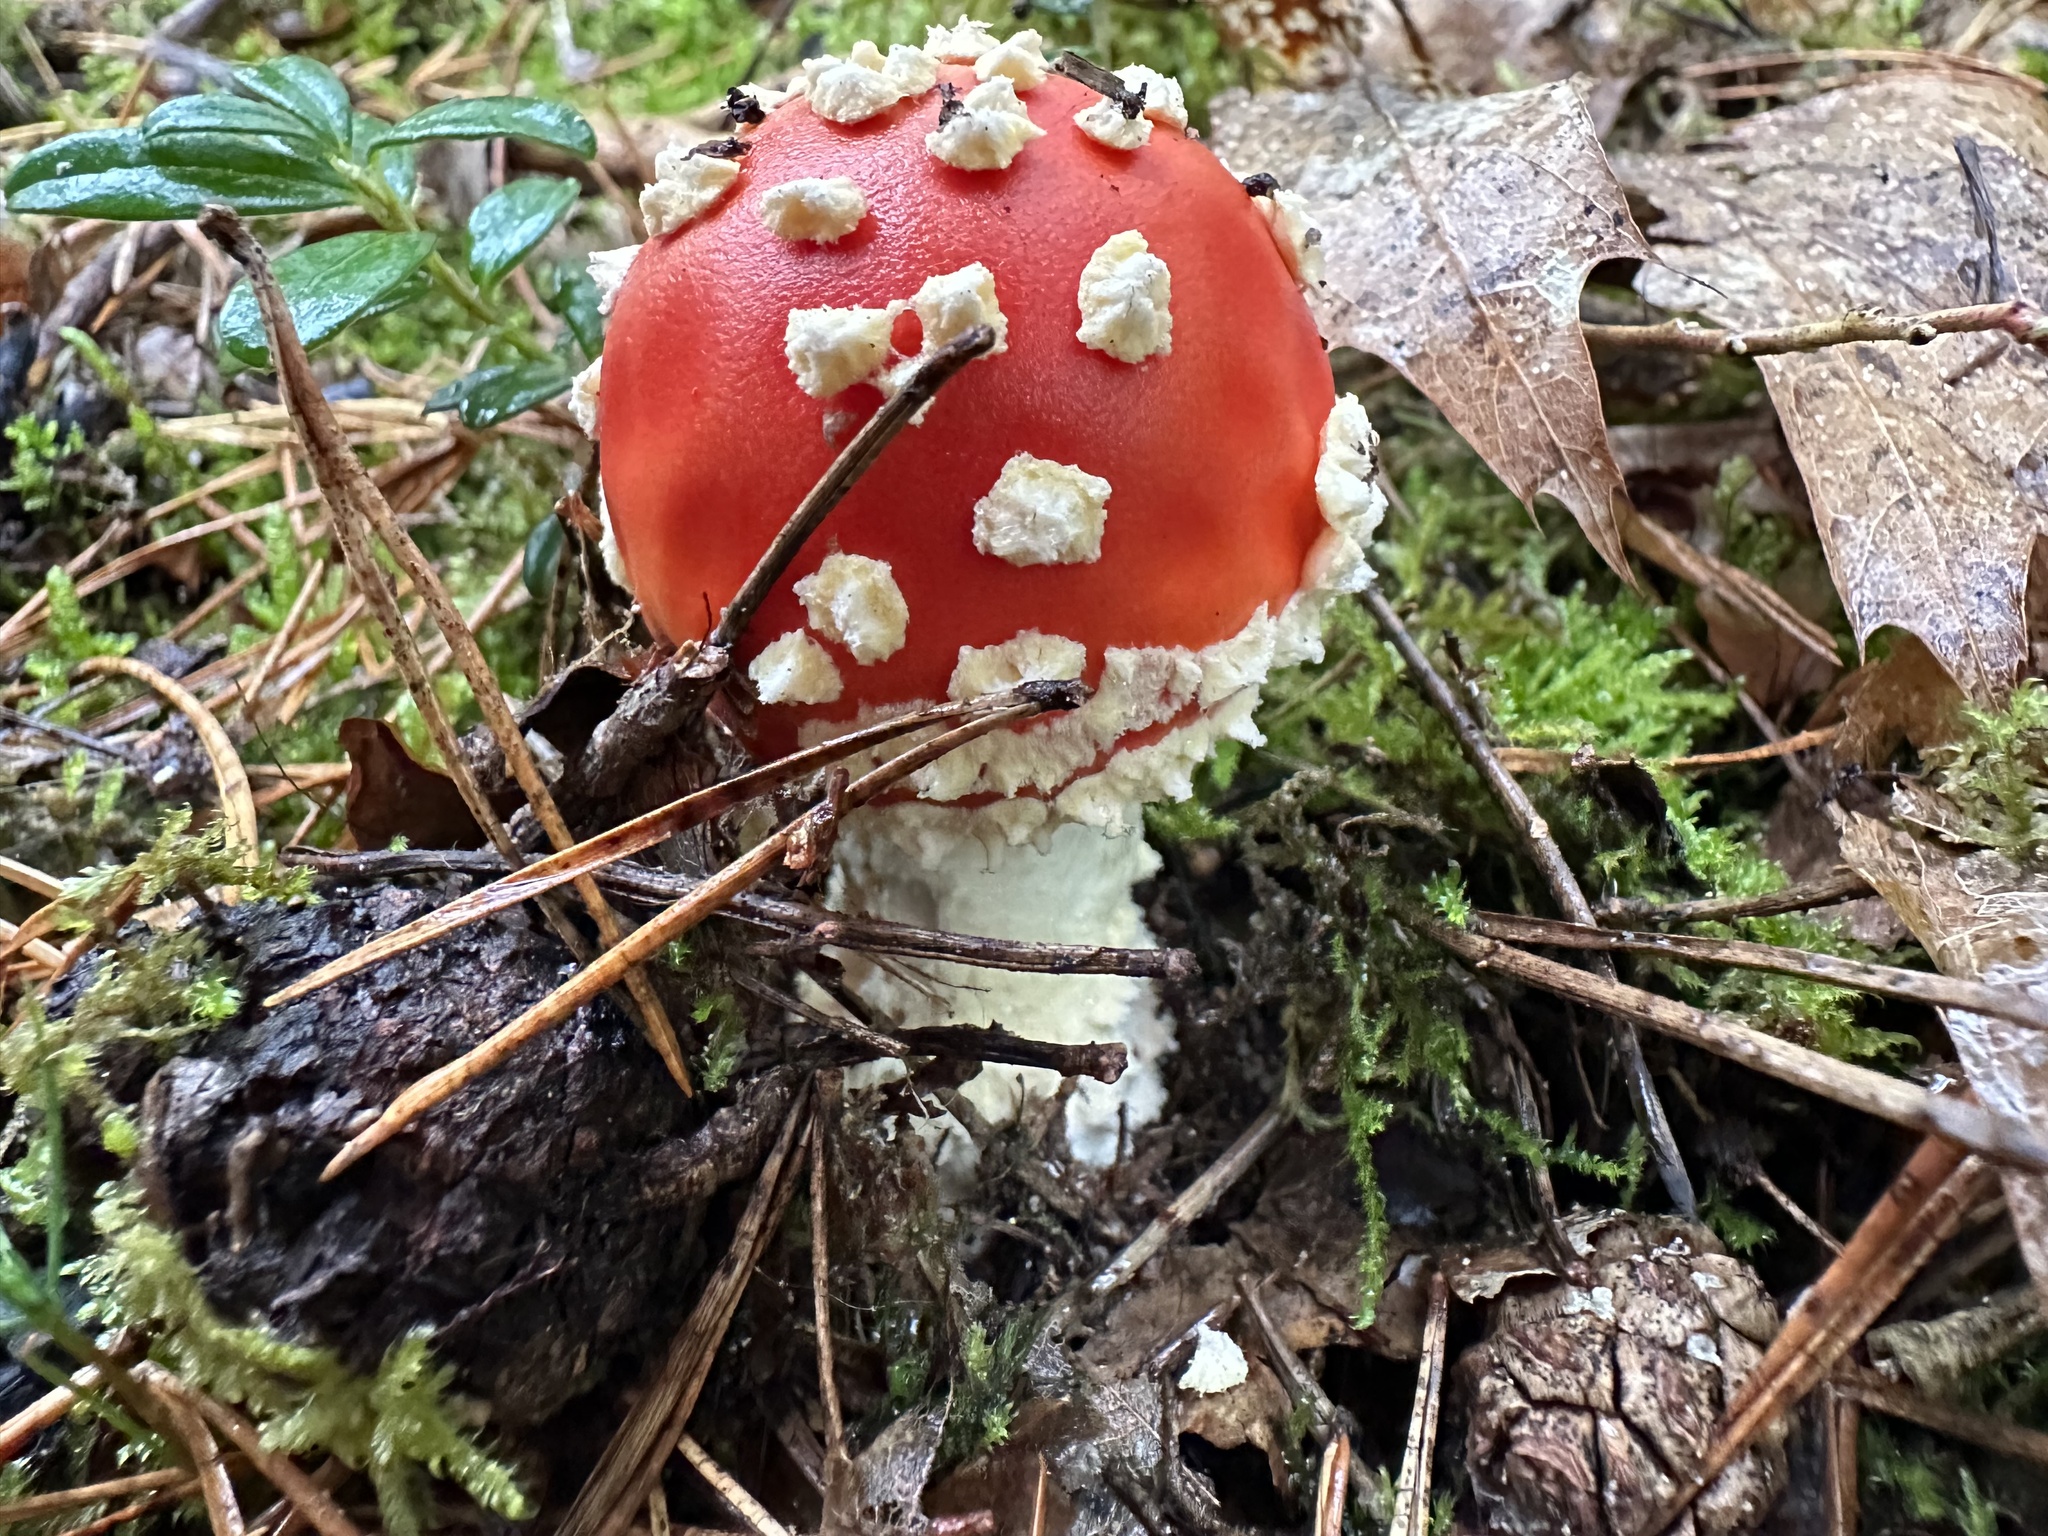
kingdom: Fungi
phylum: Basidiomycota
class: Agaricomycetes
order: Agaricales
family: Amanitaceae
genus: Amanita
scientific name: Amanita muscaria
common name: Fly agaric
